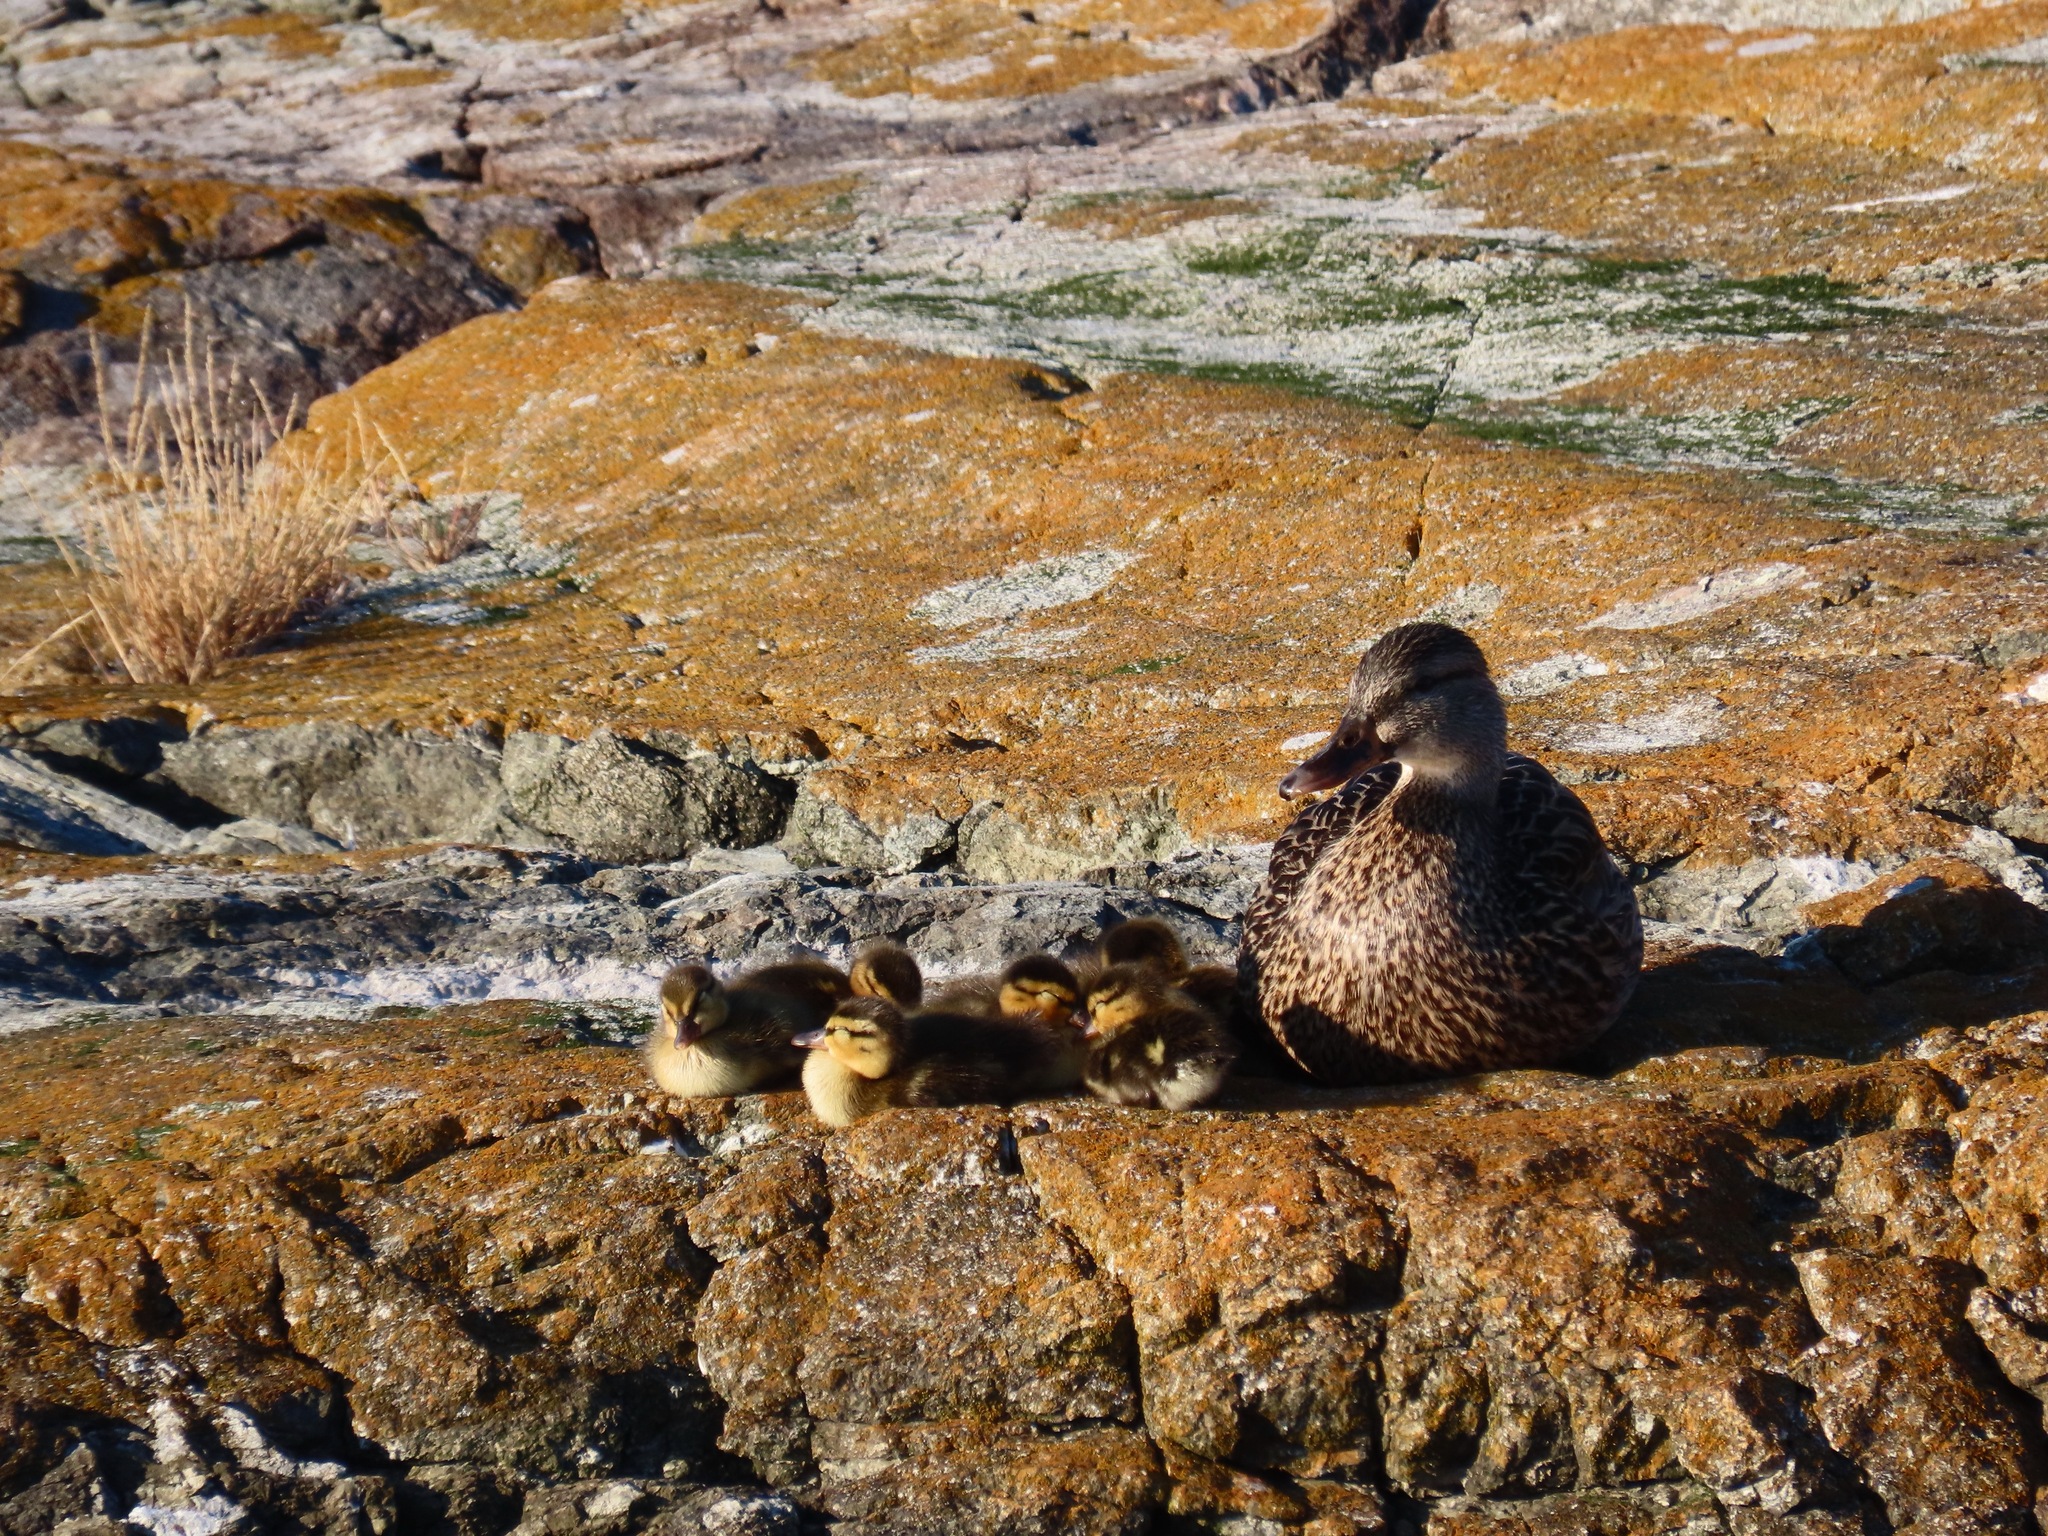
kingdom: Animalia
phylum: Chordata
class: Aves
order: Anseriformes
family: Anatidae
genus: Anas
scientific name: Anas platyrhynchos
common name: Mallard
